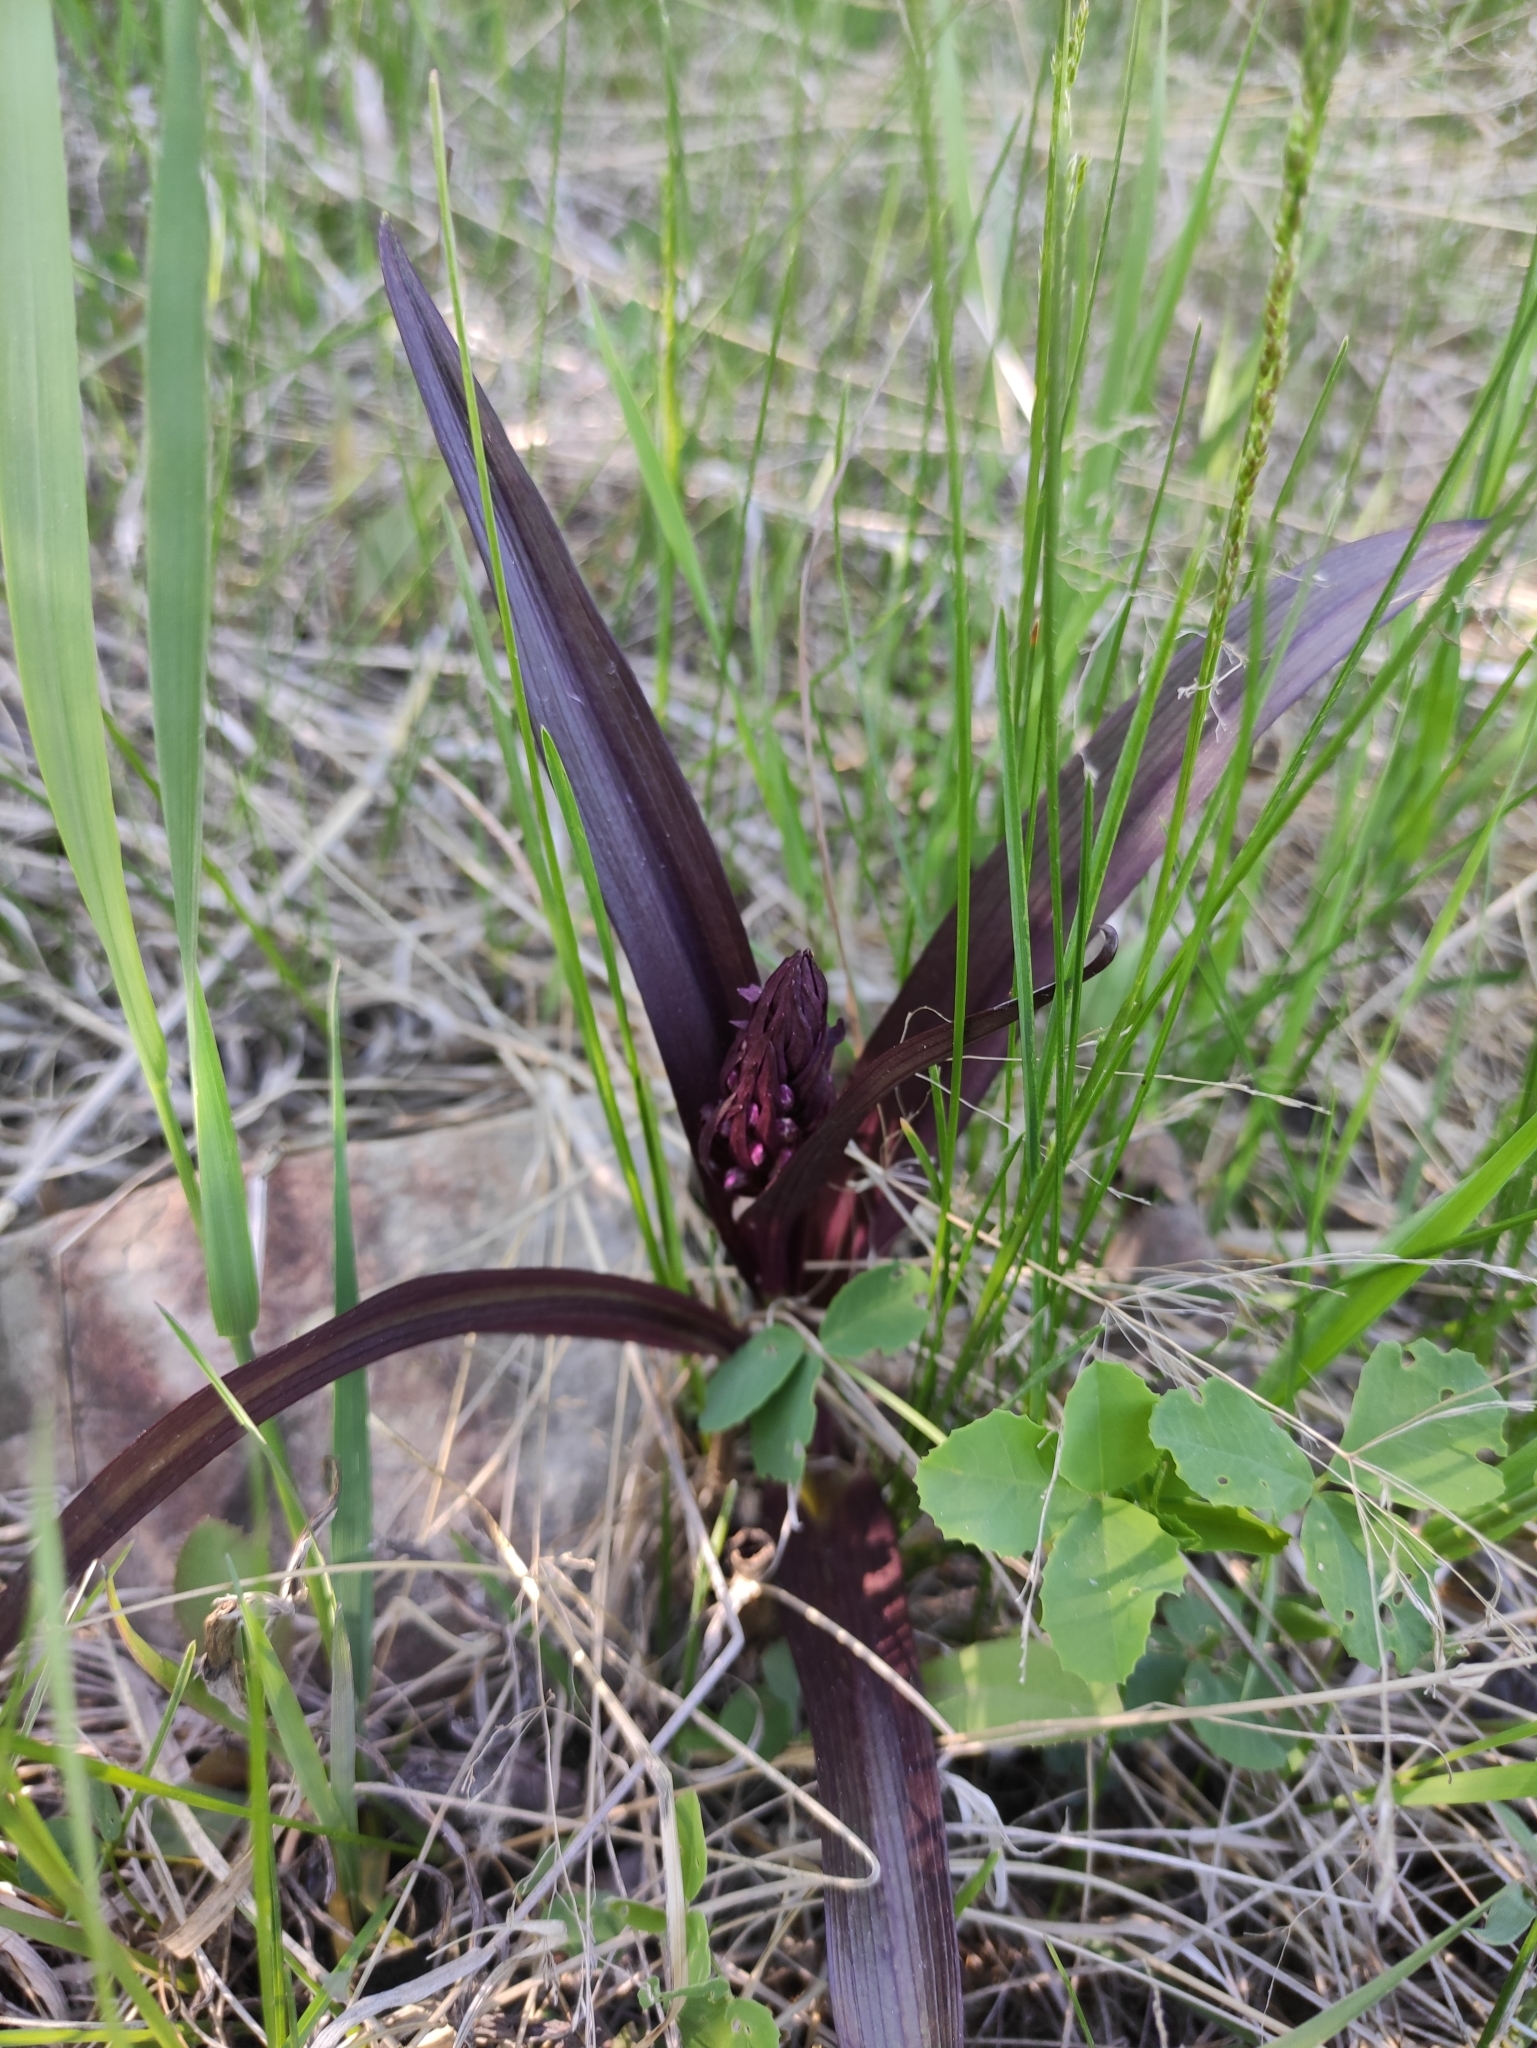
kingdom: Plantae
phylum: Tracheophyta
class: Liliopsida
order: Asparagales
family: Orchidaceae
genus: Dactylorhiza
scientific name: Dactylorhiza incarnata
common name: Early marsh-orchid
